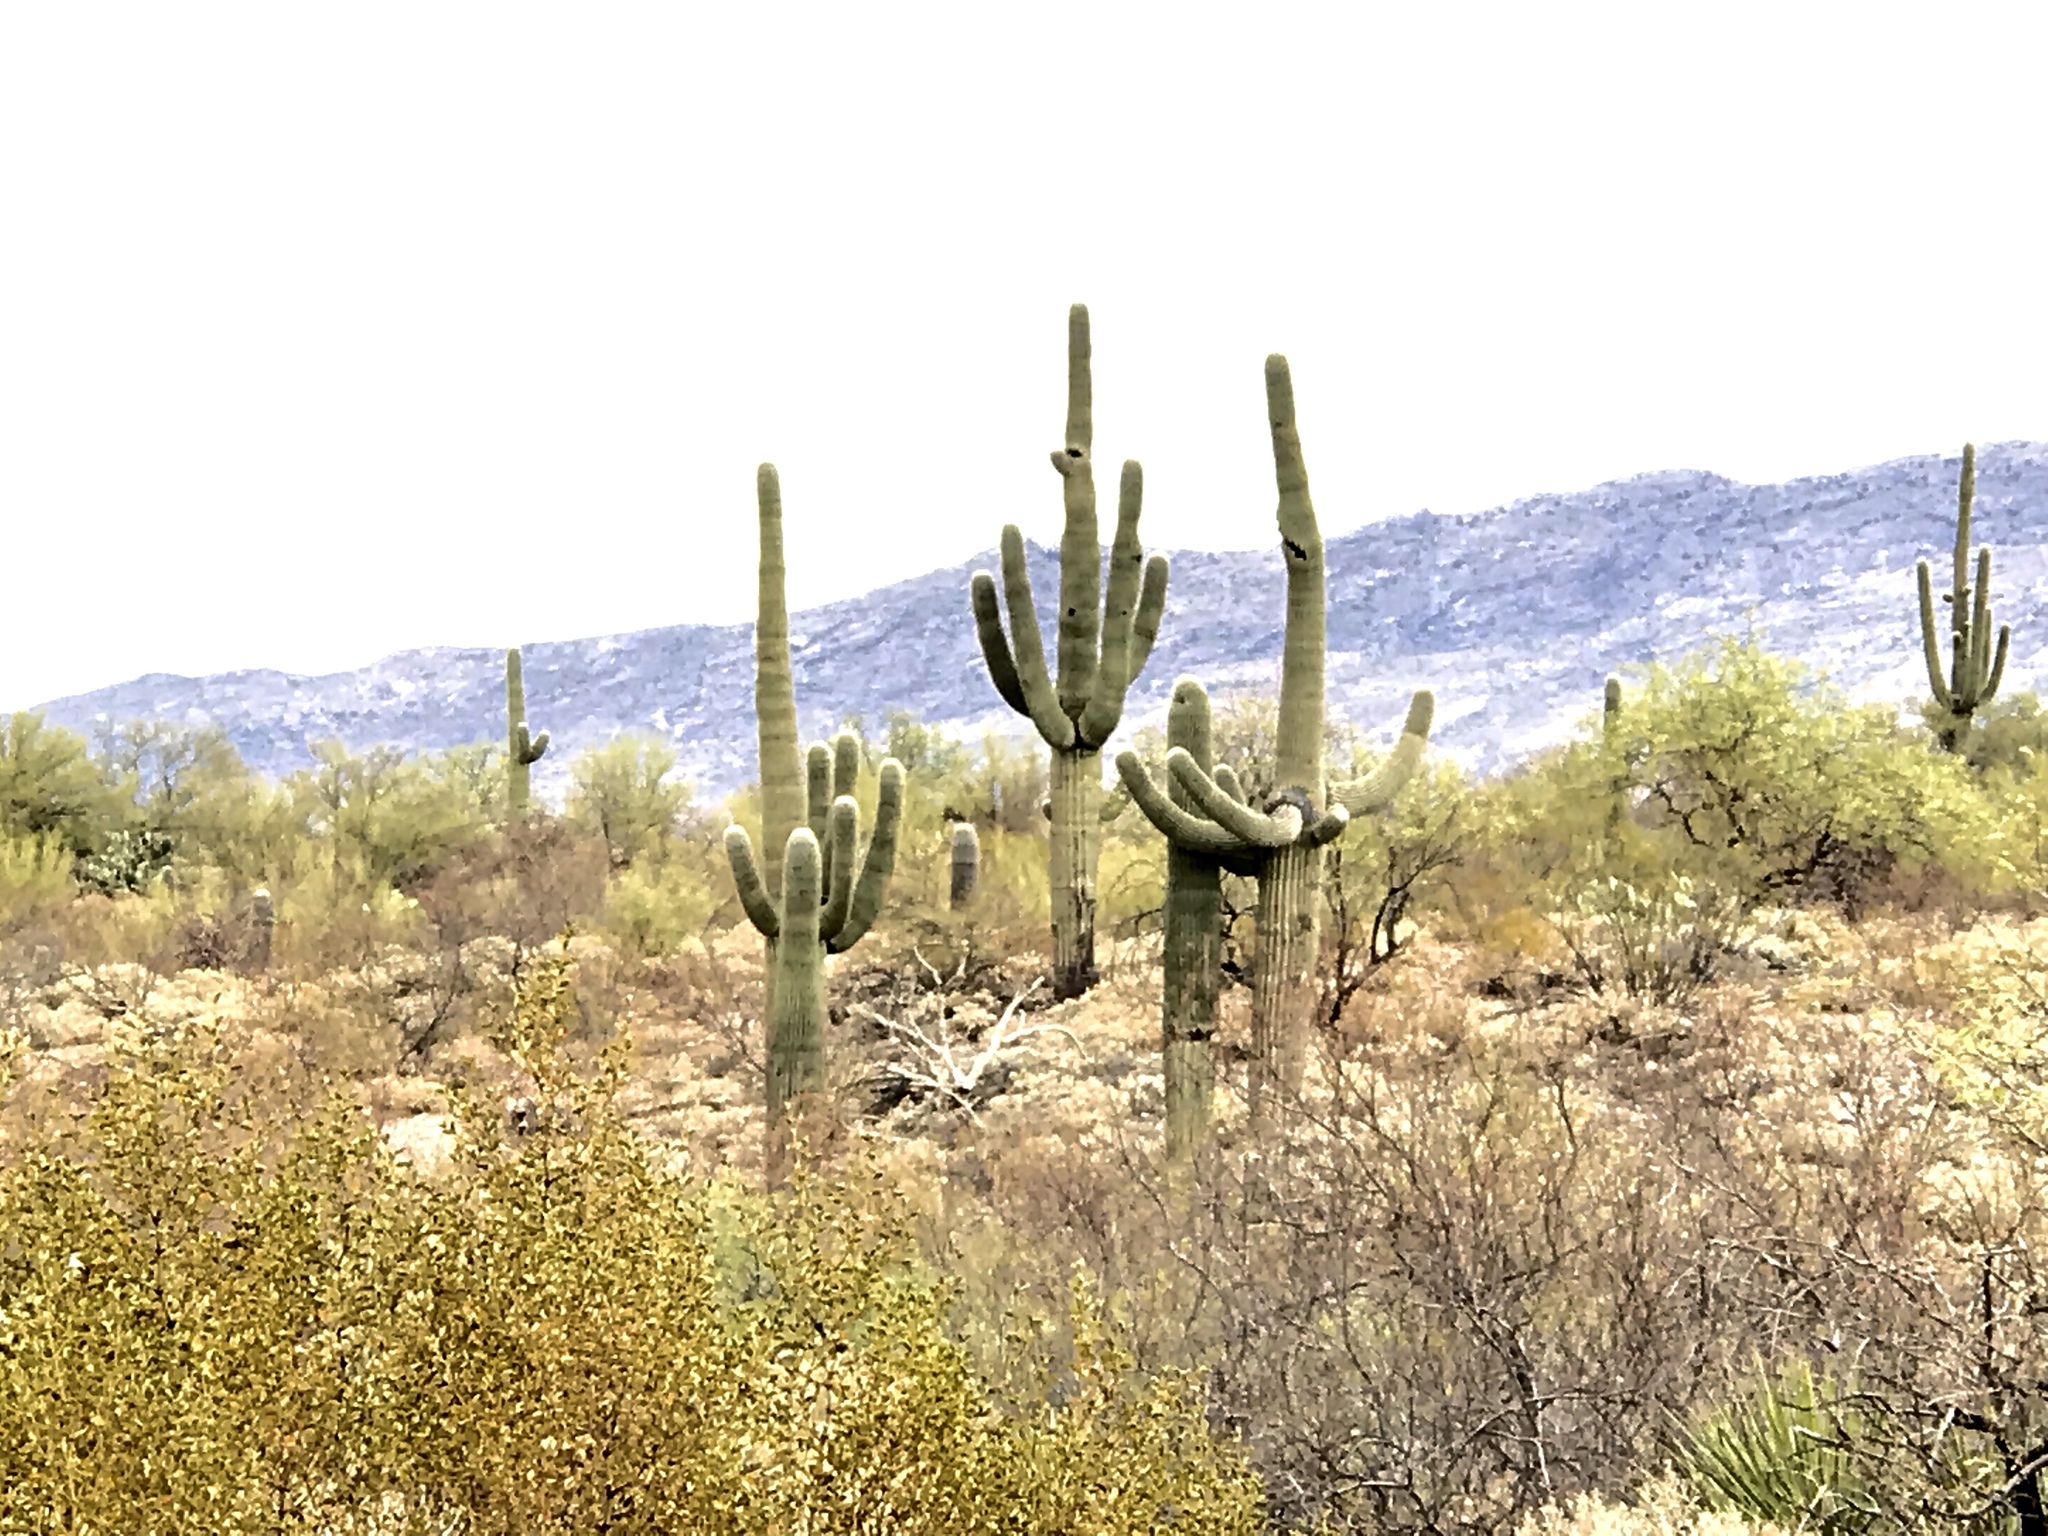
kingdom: Plantae
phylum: Tracheophyta
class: Magnoliopsida
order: Caryophyllales
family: Cactaceae
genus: Carnegiea
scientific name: Carnegiea gigantea
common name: Saguaro
